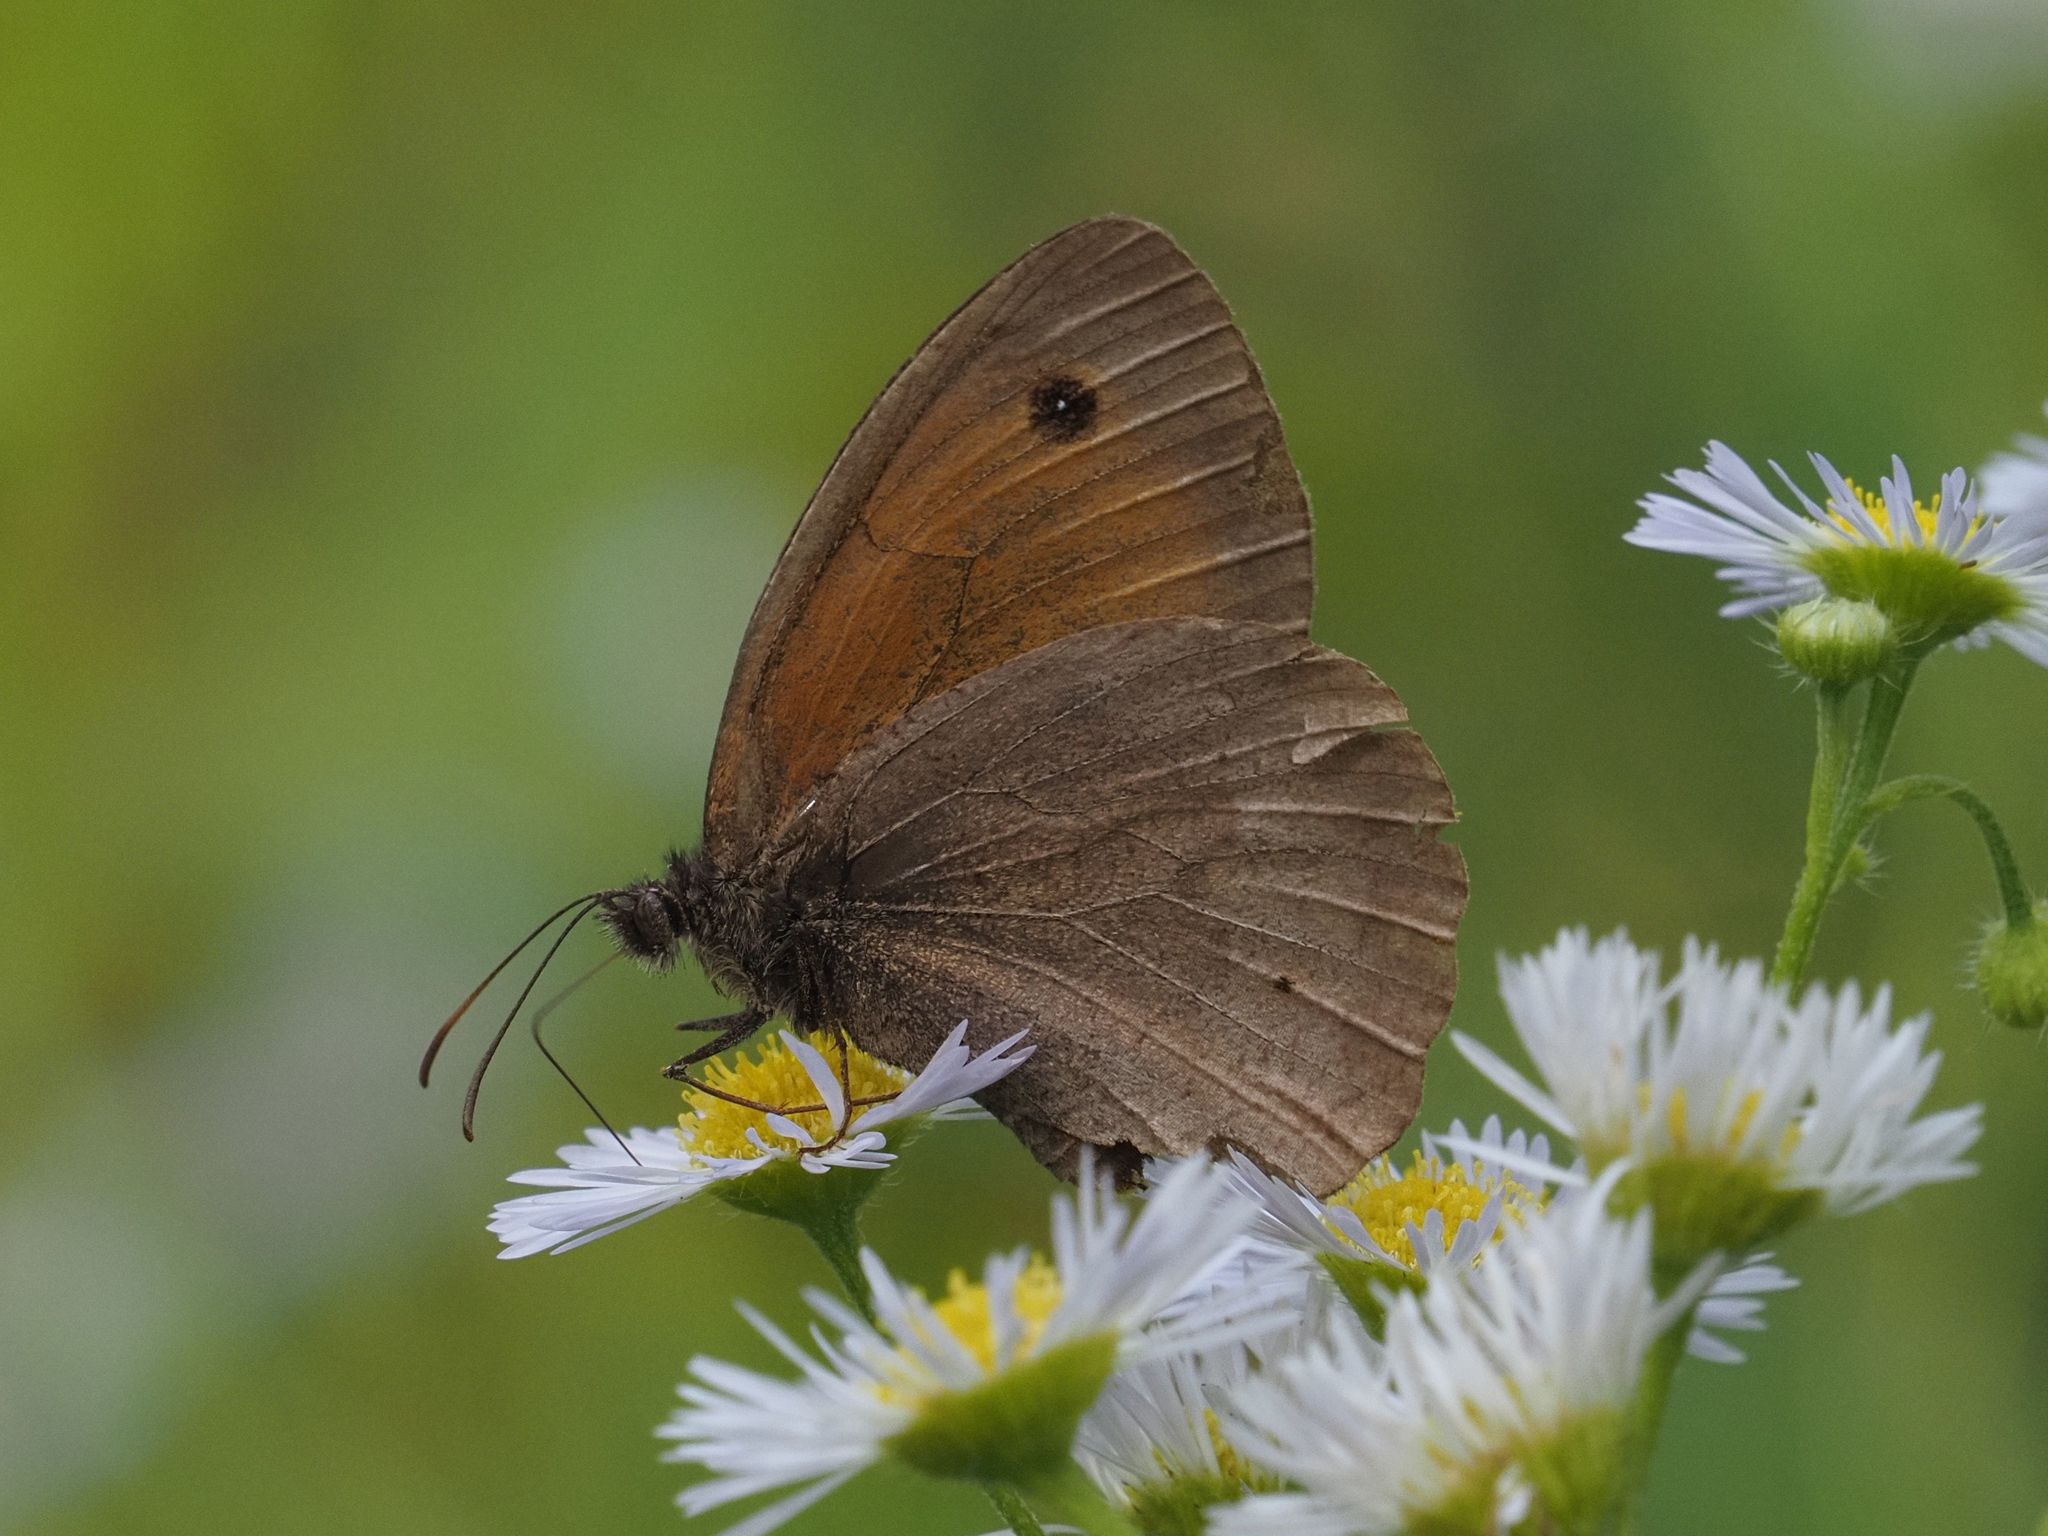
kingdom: Animalia
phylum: Arthropoda
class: Insecta
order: Lepidoptera
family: Nymphalidae
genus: Maniola
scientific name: Maniola jurtina
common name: Meadow brown
